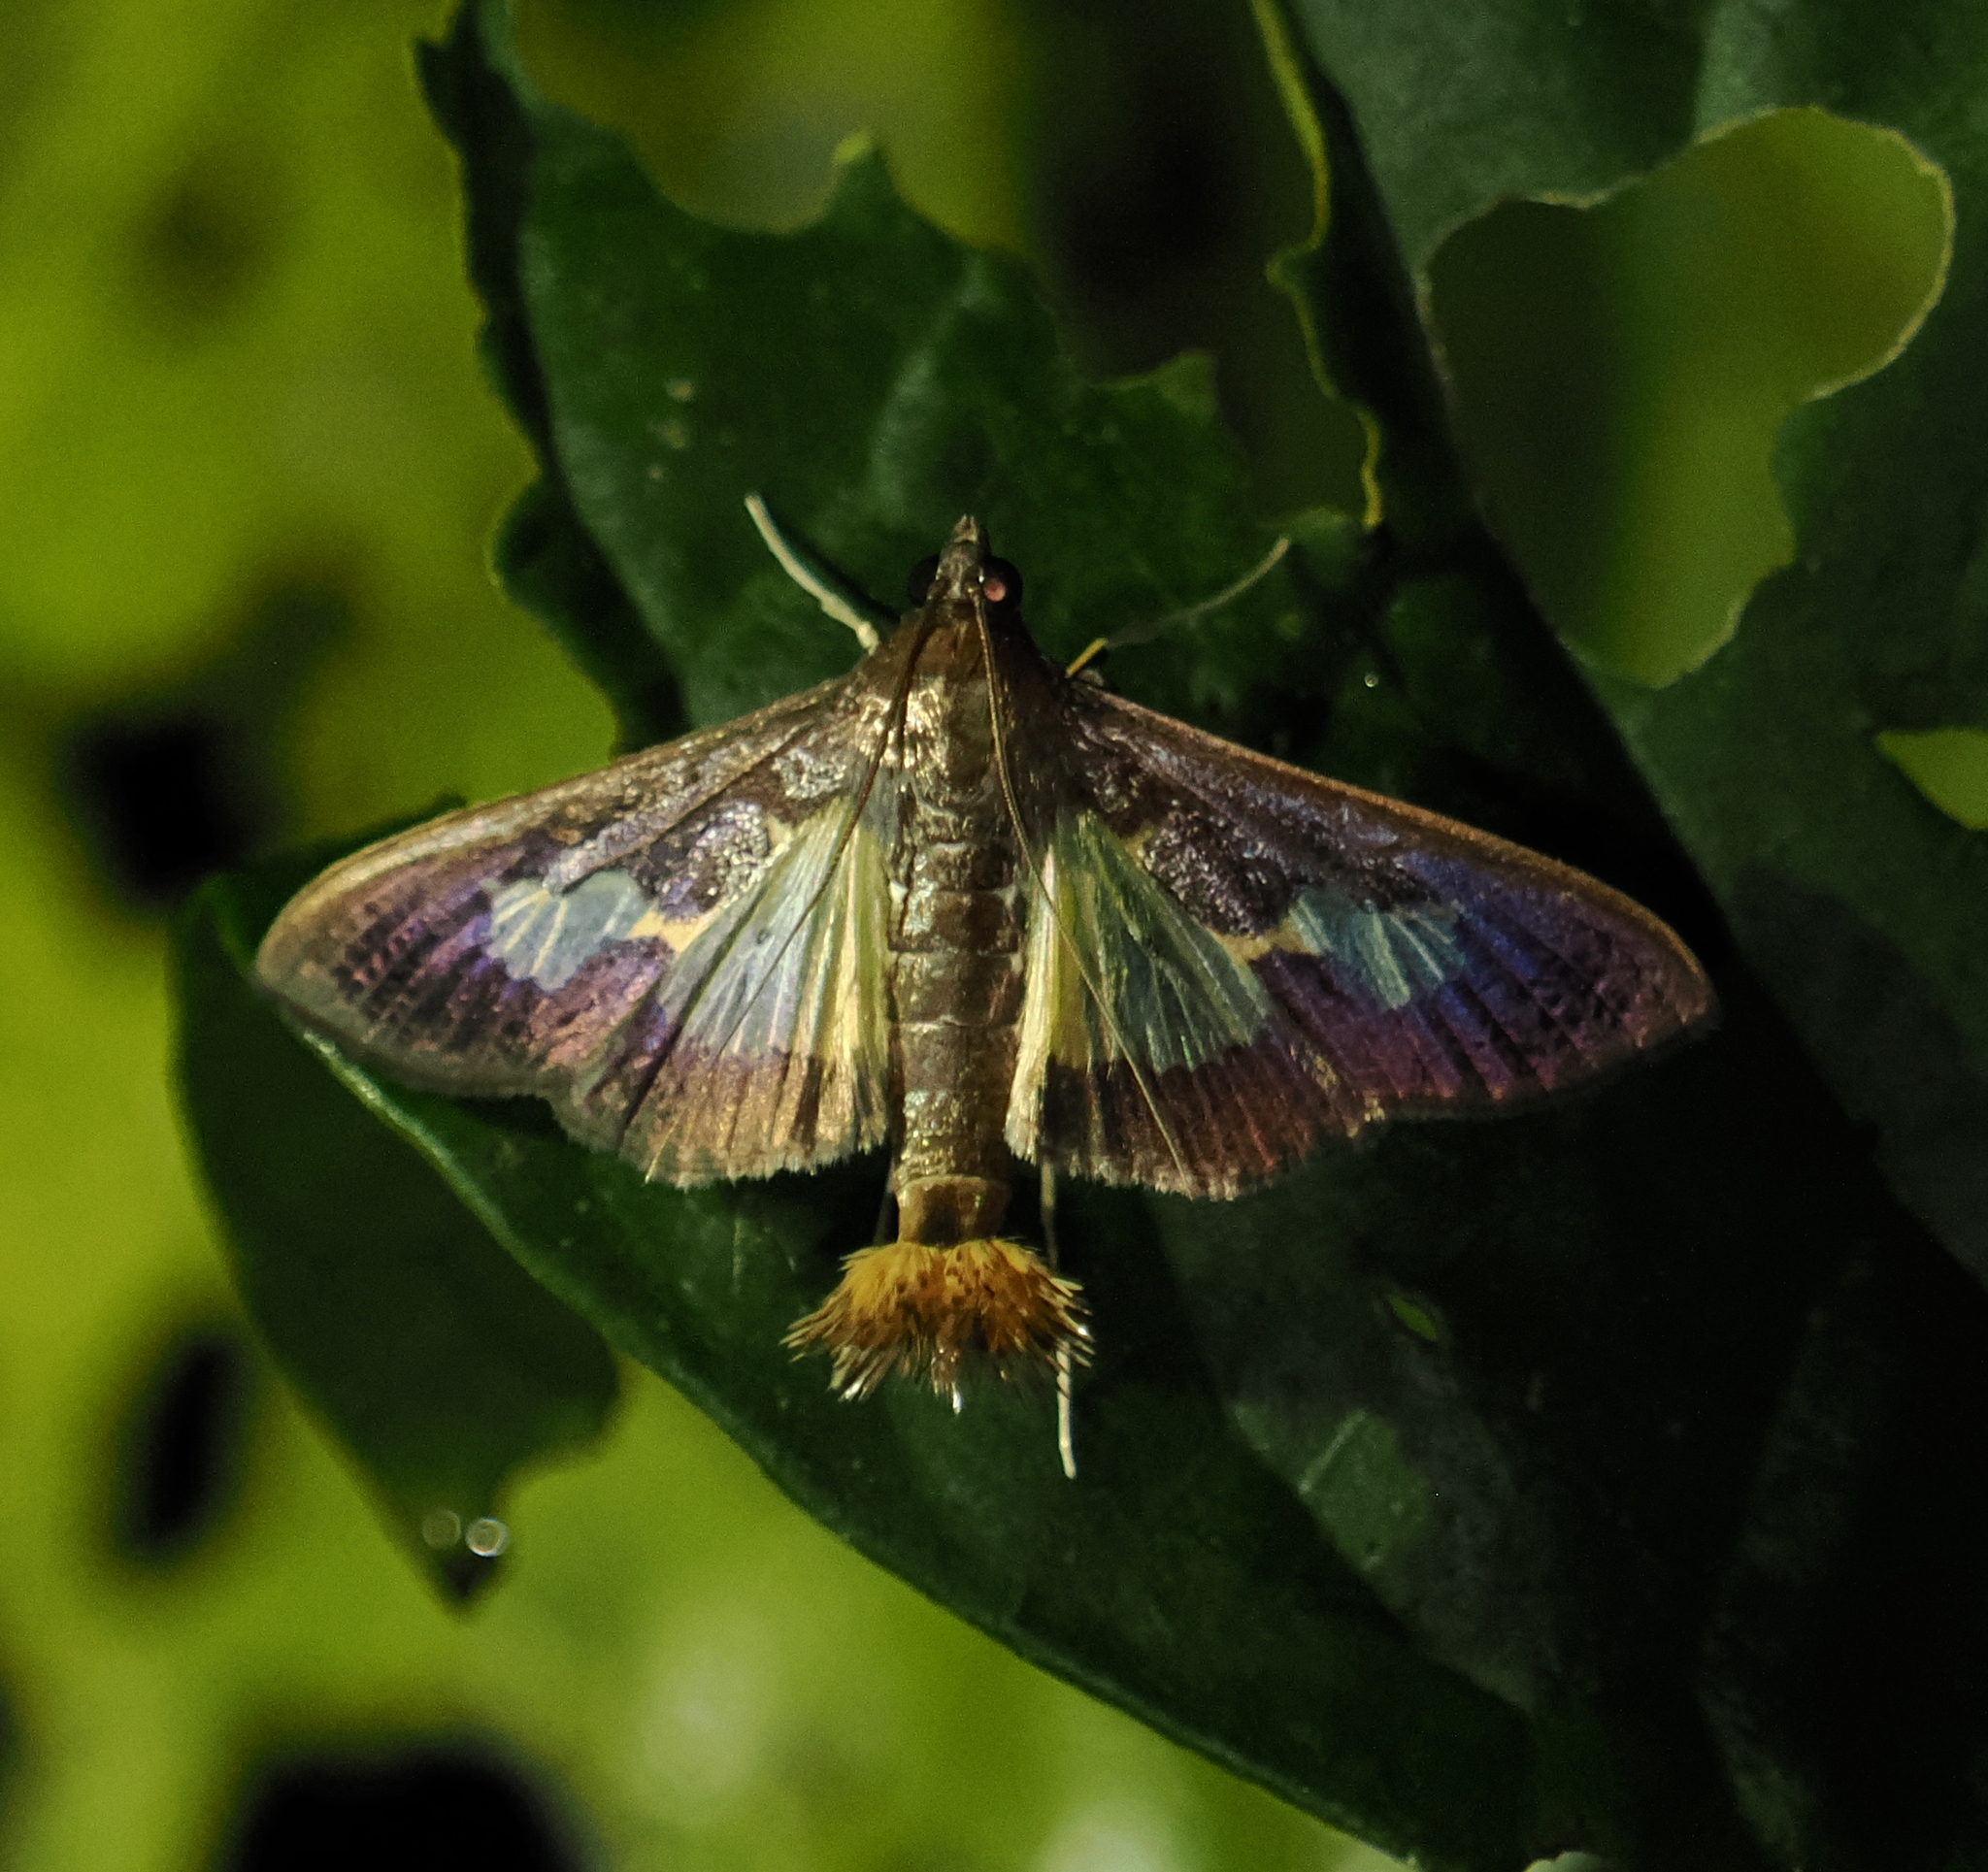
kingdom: Animalia
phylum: Arthropoda
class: Insecta
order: Lepidoptera
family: Crambidae
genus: Cryptographis
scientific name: Cryptographis nitidalis
